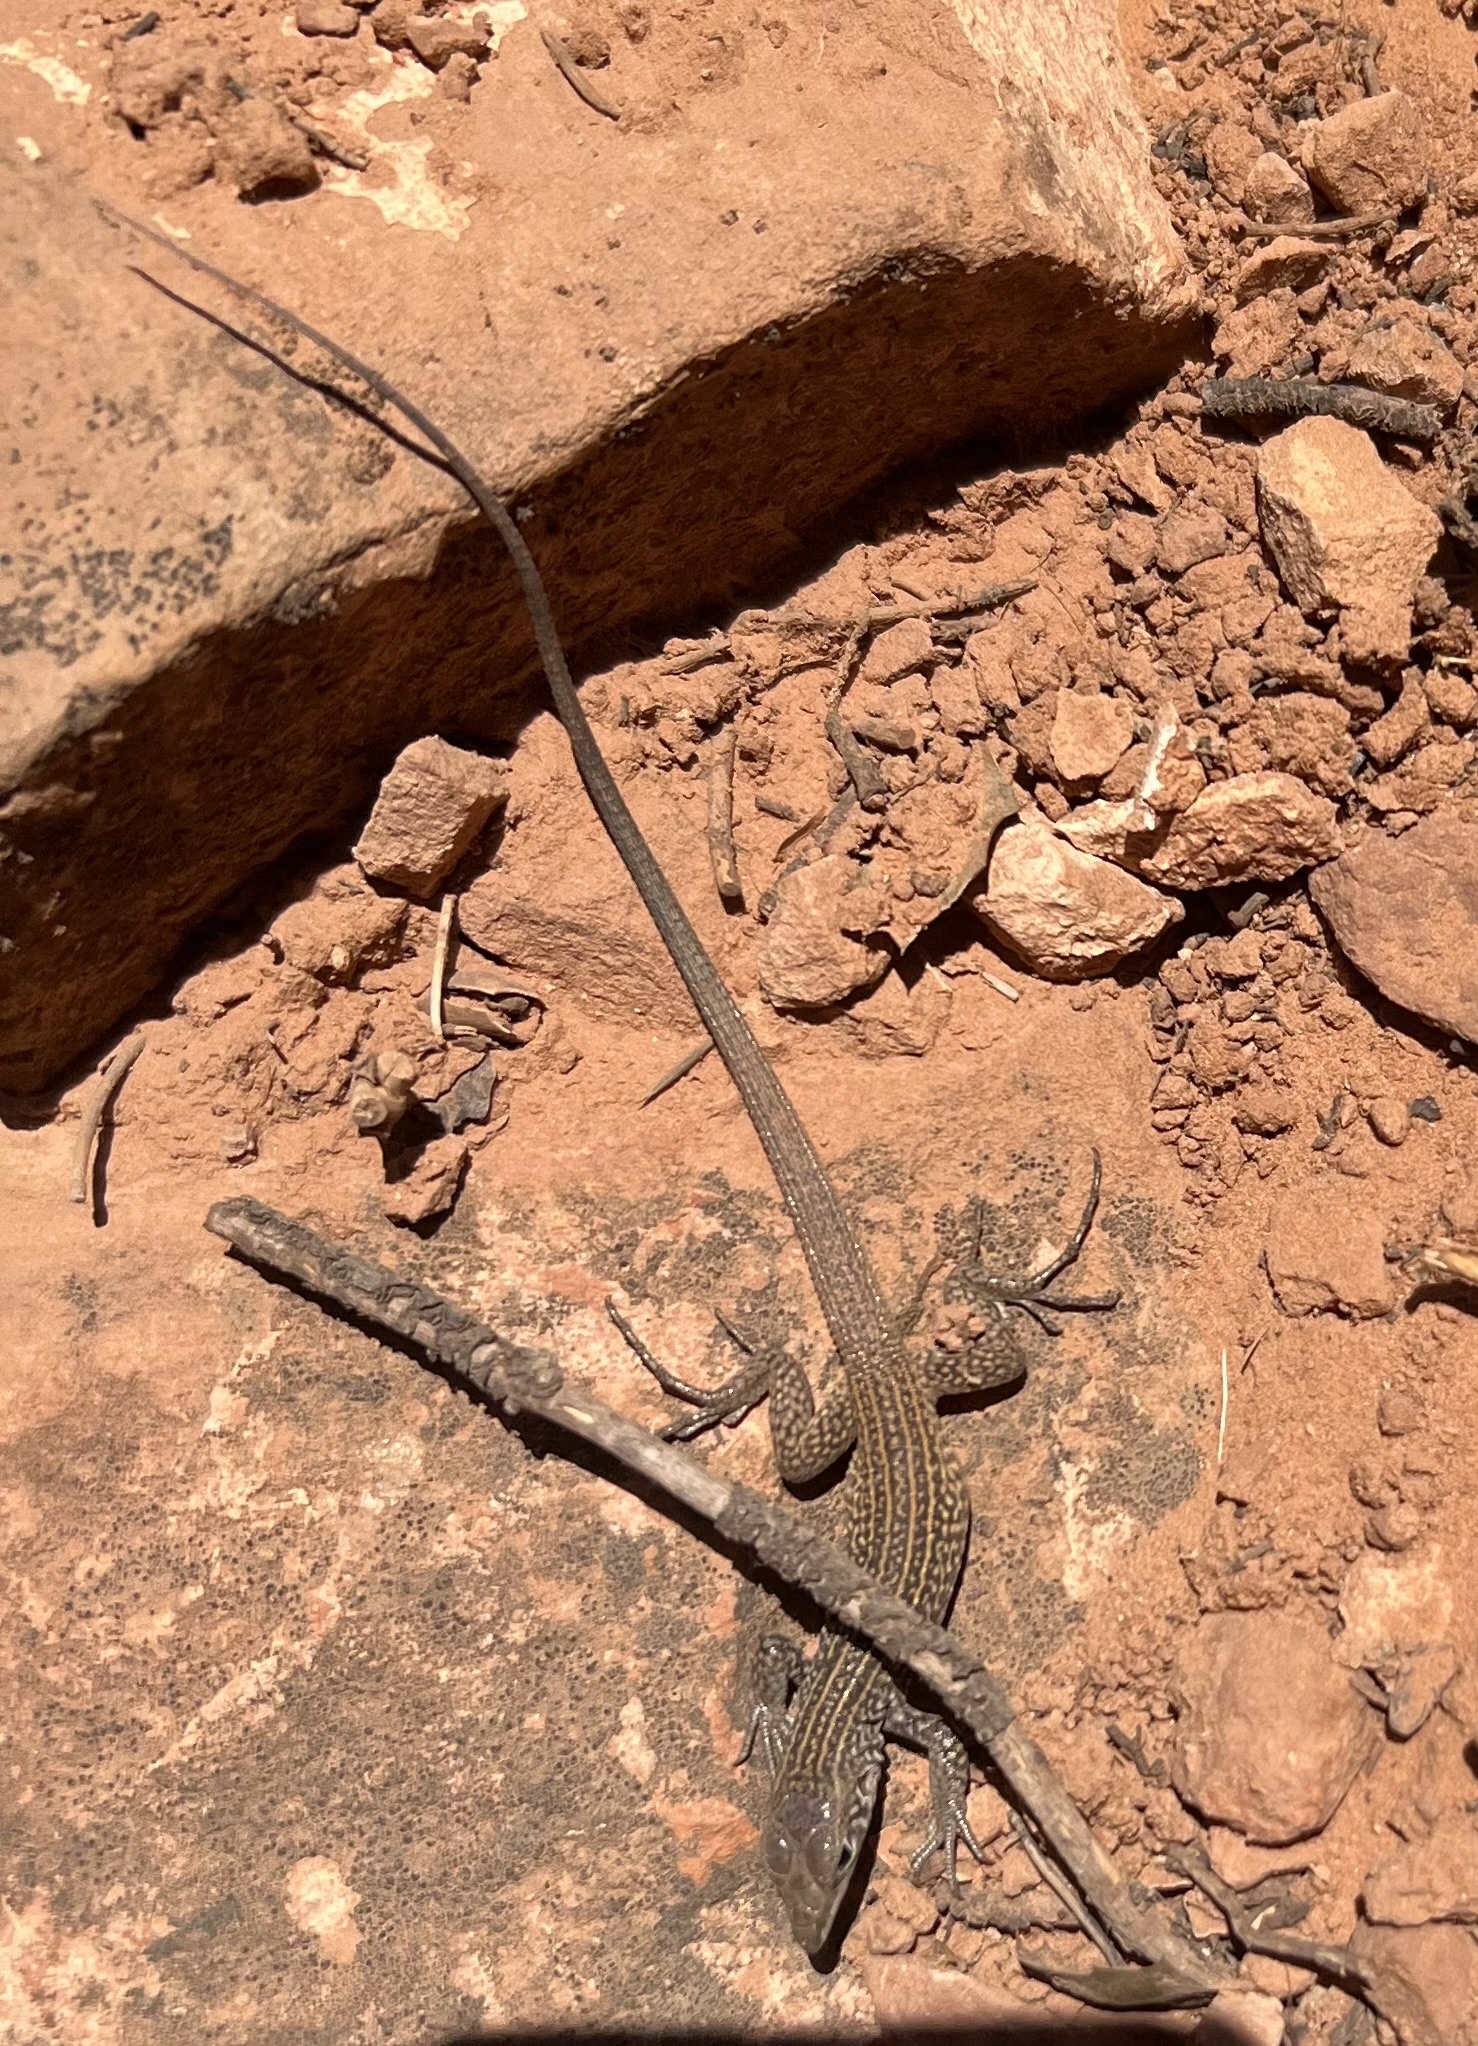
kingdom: Animalia
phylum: Chordata
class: Squamata
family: Teiidae
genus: Aspidoscelis
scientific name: Aspidoscelis tigris
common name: Tiger whiptail
